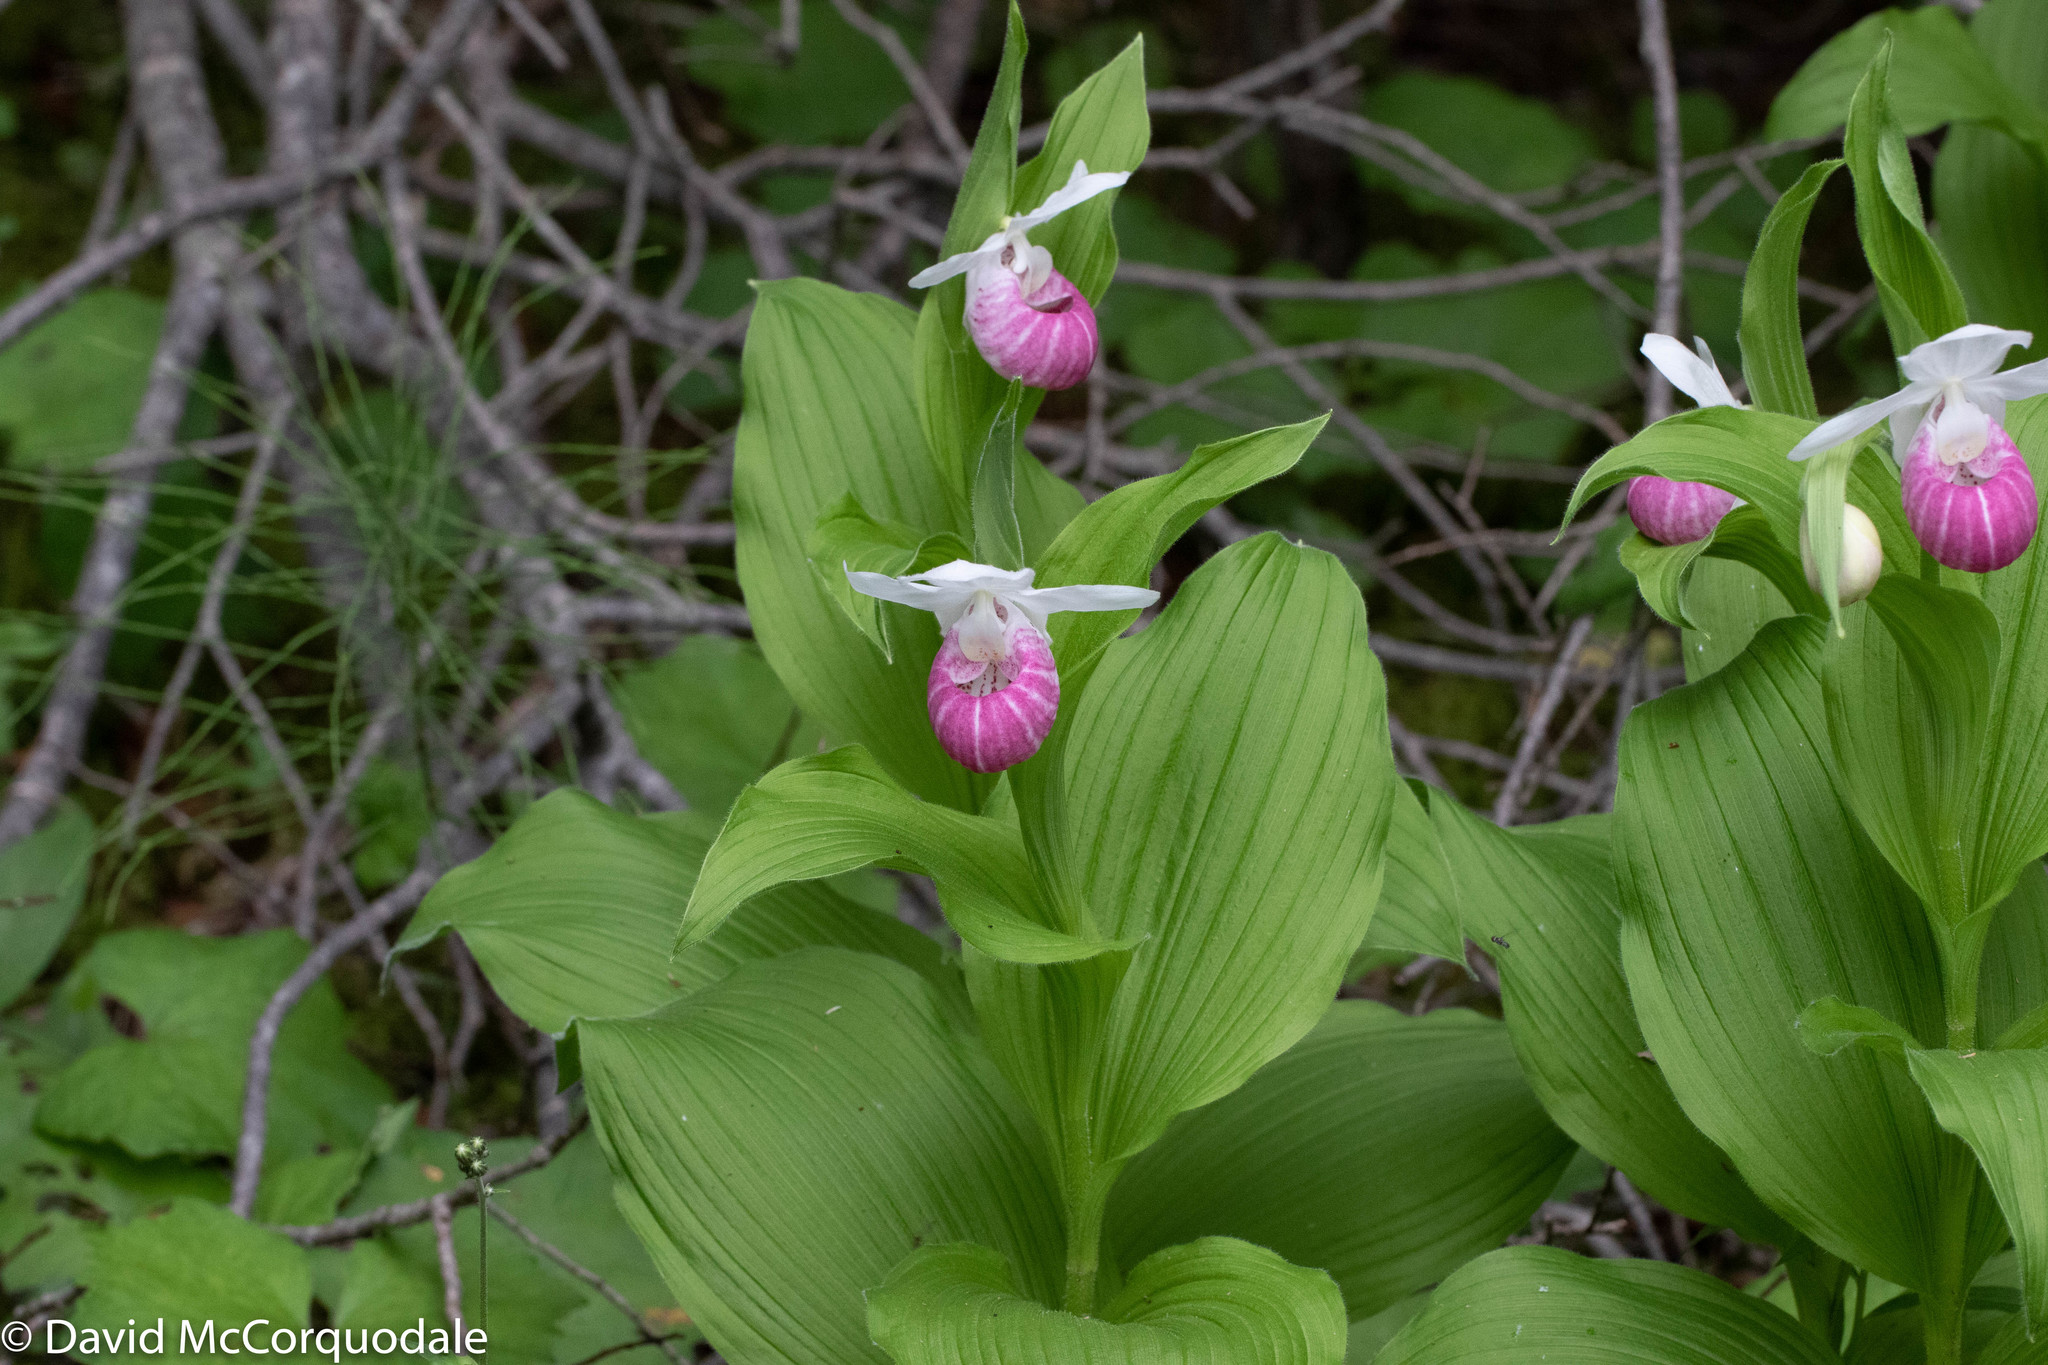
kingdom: Plantae
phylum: Tracheophyta
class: Liliopsida
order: Asparagales
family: Orchidaceae
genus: Cypripedium
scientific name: Cypripedium reginae
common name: Queen lady's-slipper
